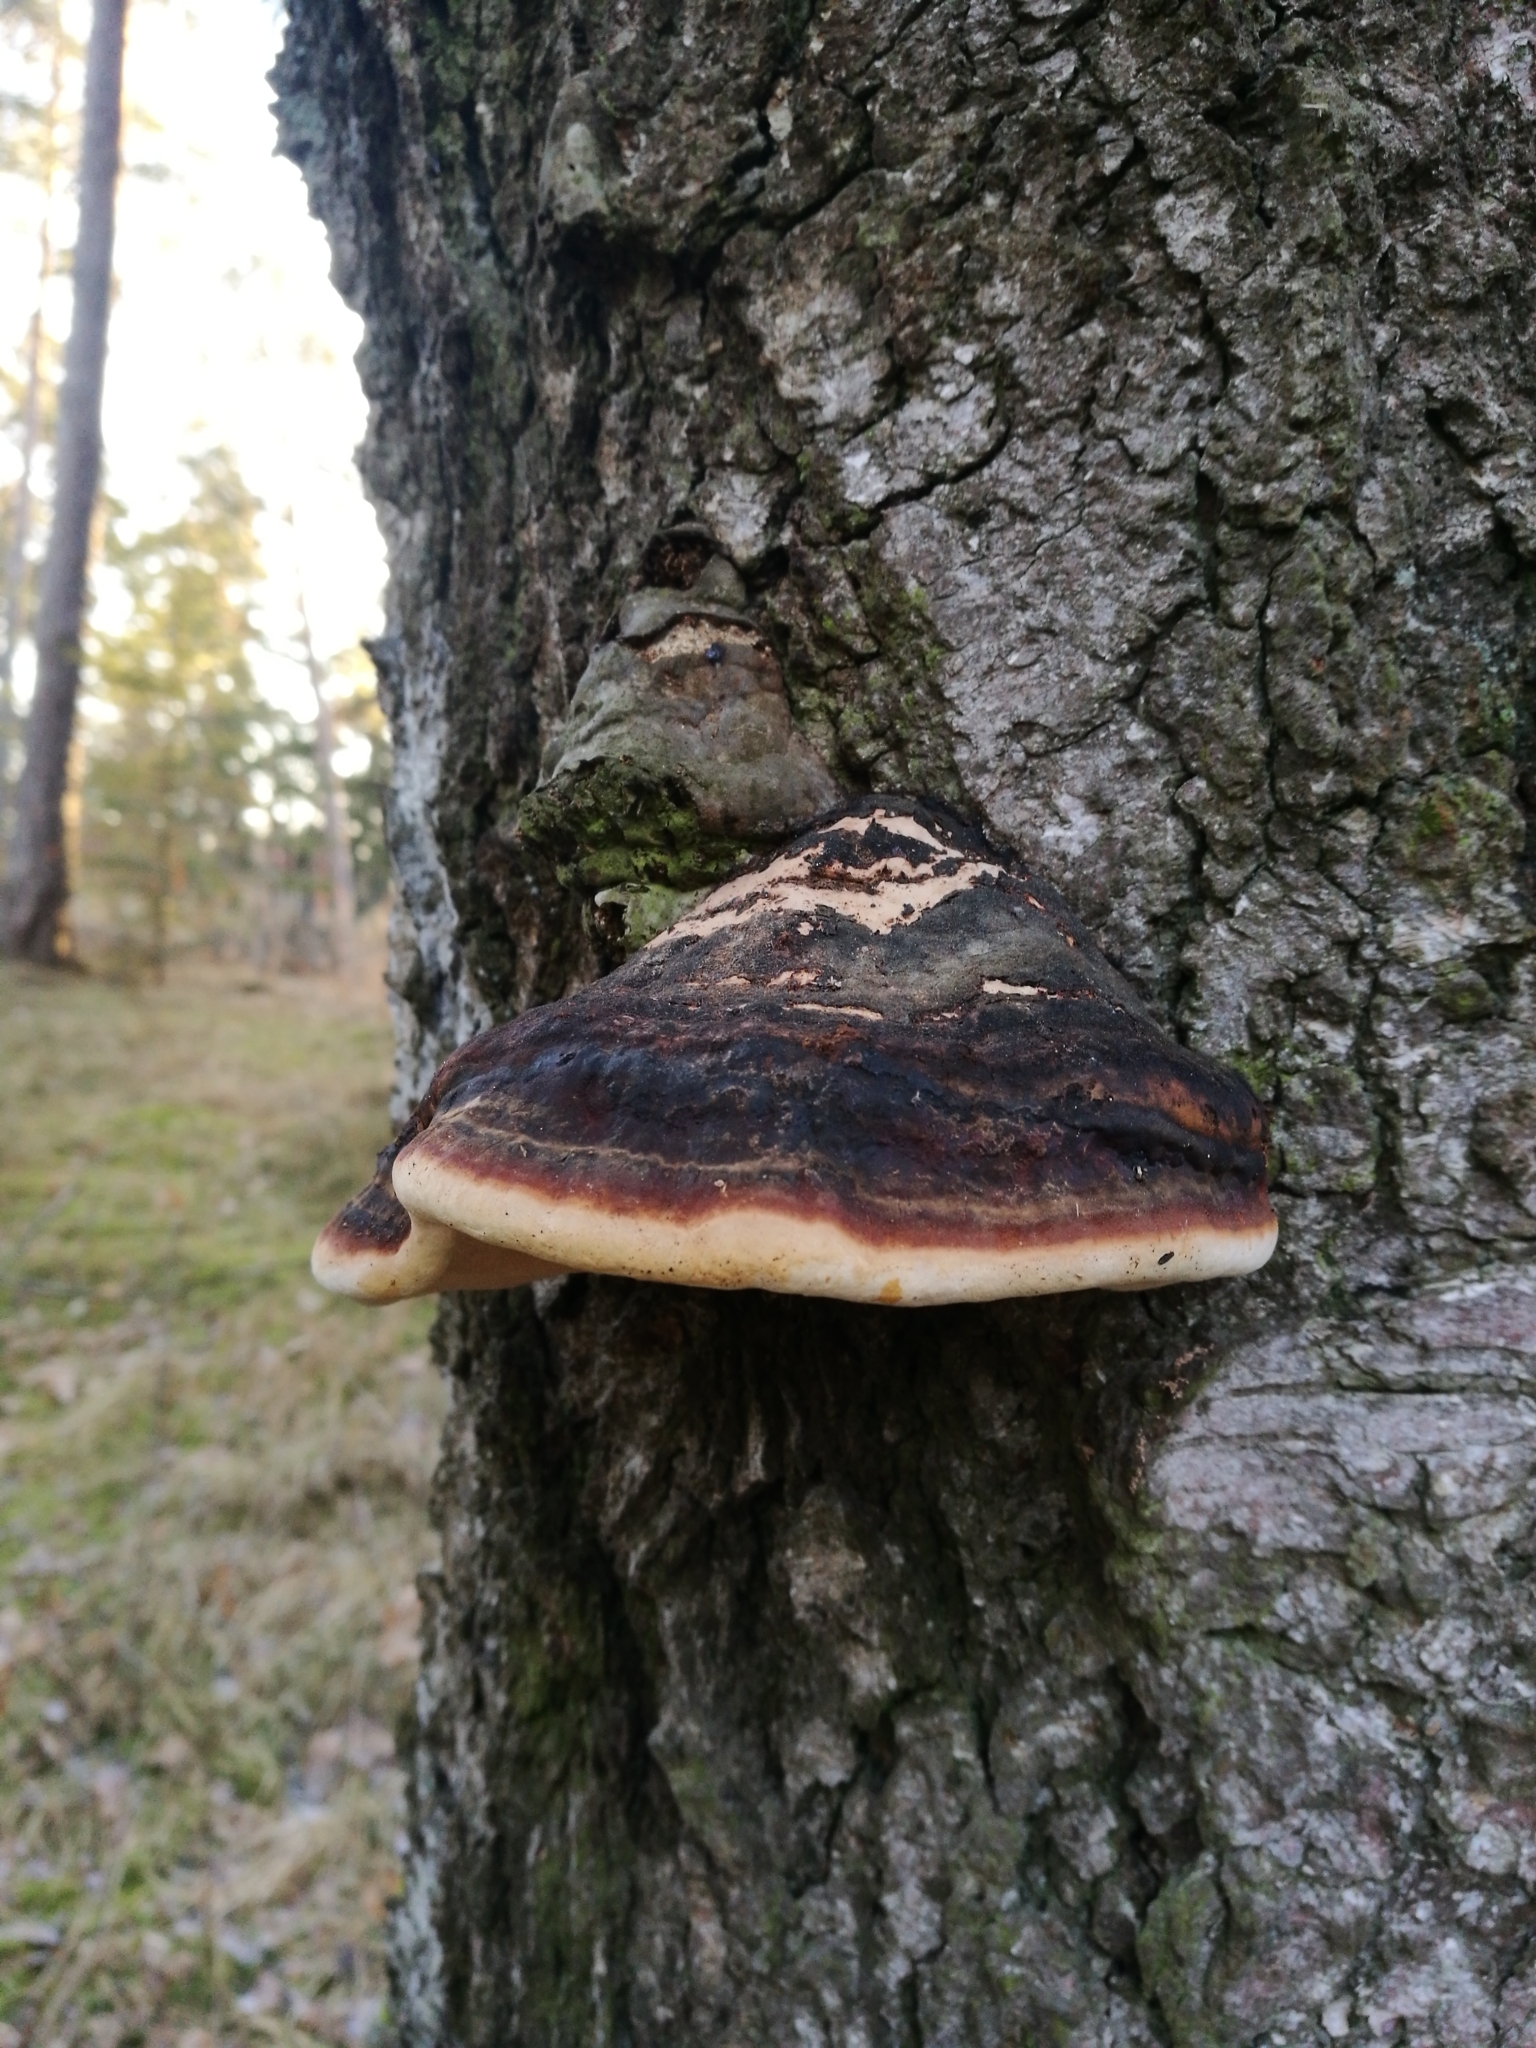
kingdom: Fungi
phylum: Basidiomycota
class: Agaricomycetes
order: Polyporales
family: Fomitopsidaceae
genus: Fomitopsis
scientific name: Fomitopsis pinicola
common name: Red-belted bracket
